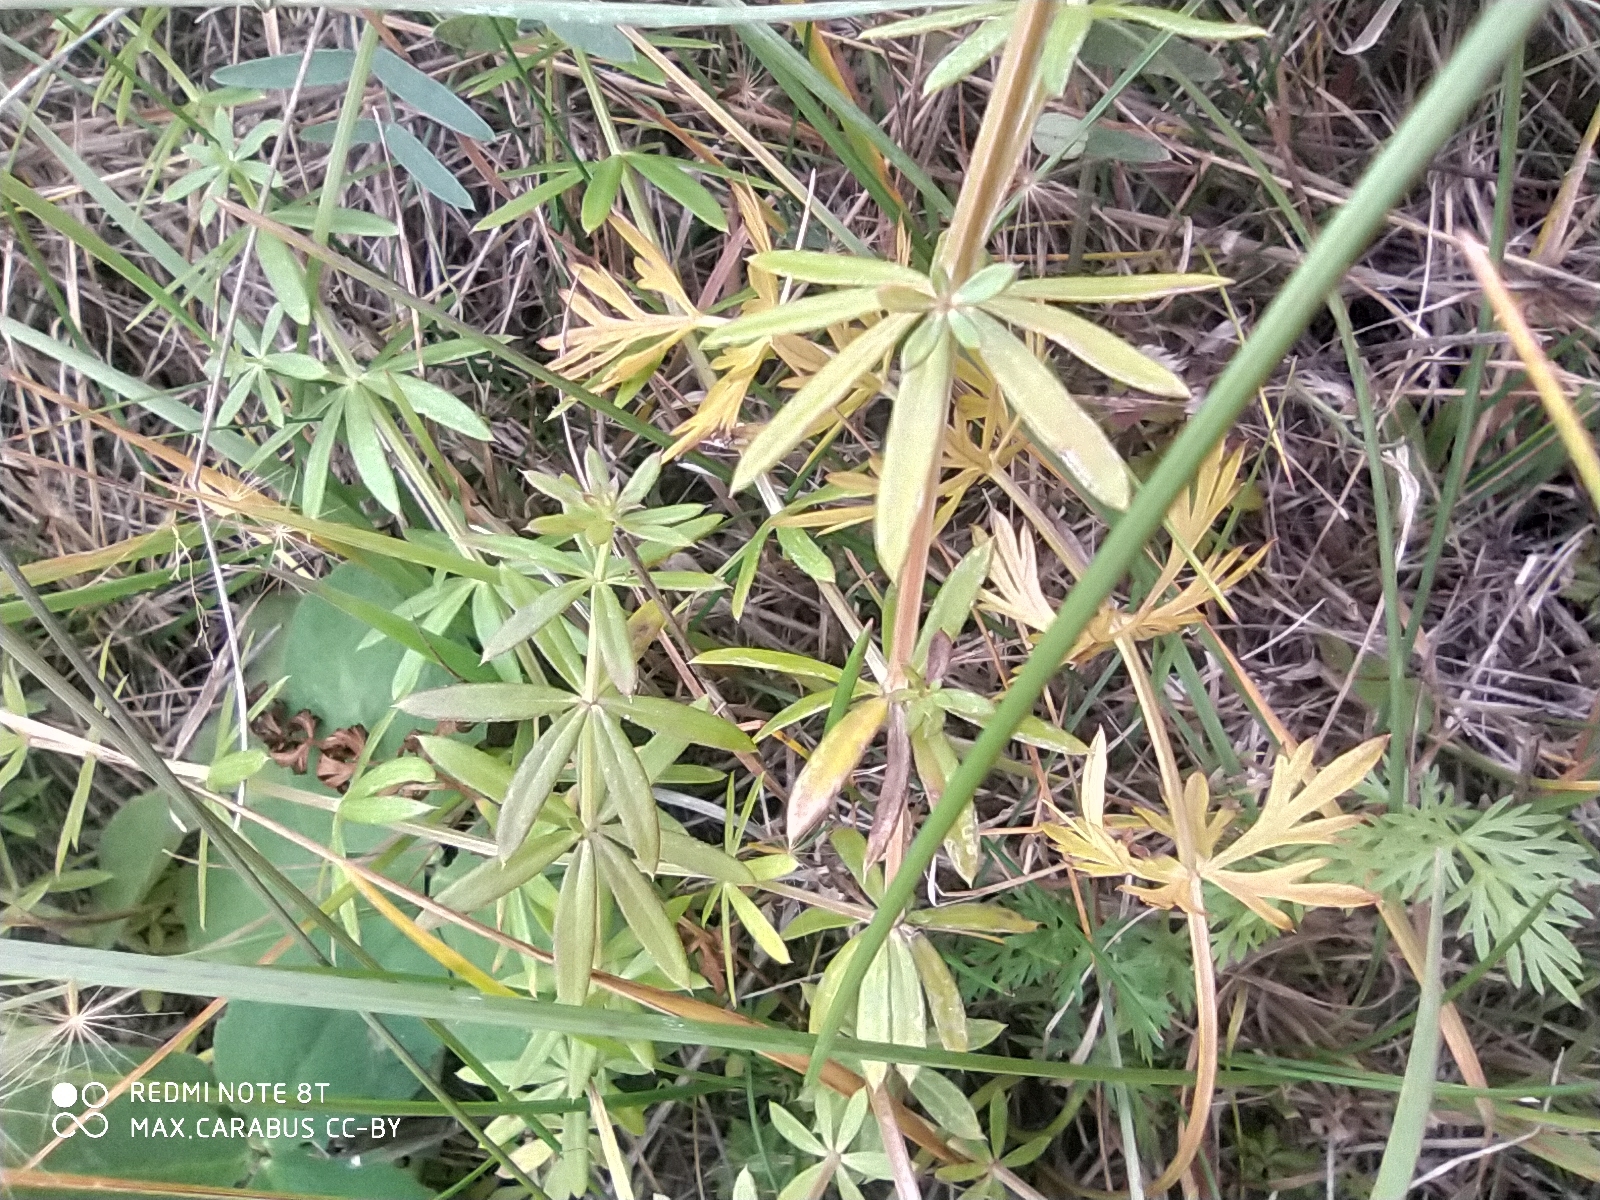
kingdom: Plantae
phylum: Tracheophyta
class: Magnoliopsida
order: Gentianales
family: Rubiaceae
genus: Galium
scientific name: Galium mollugo
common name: Hedge bedstraw
